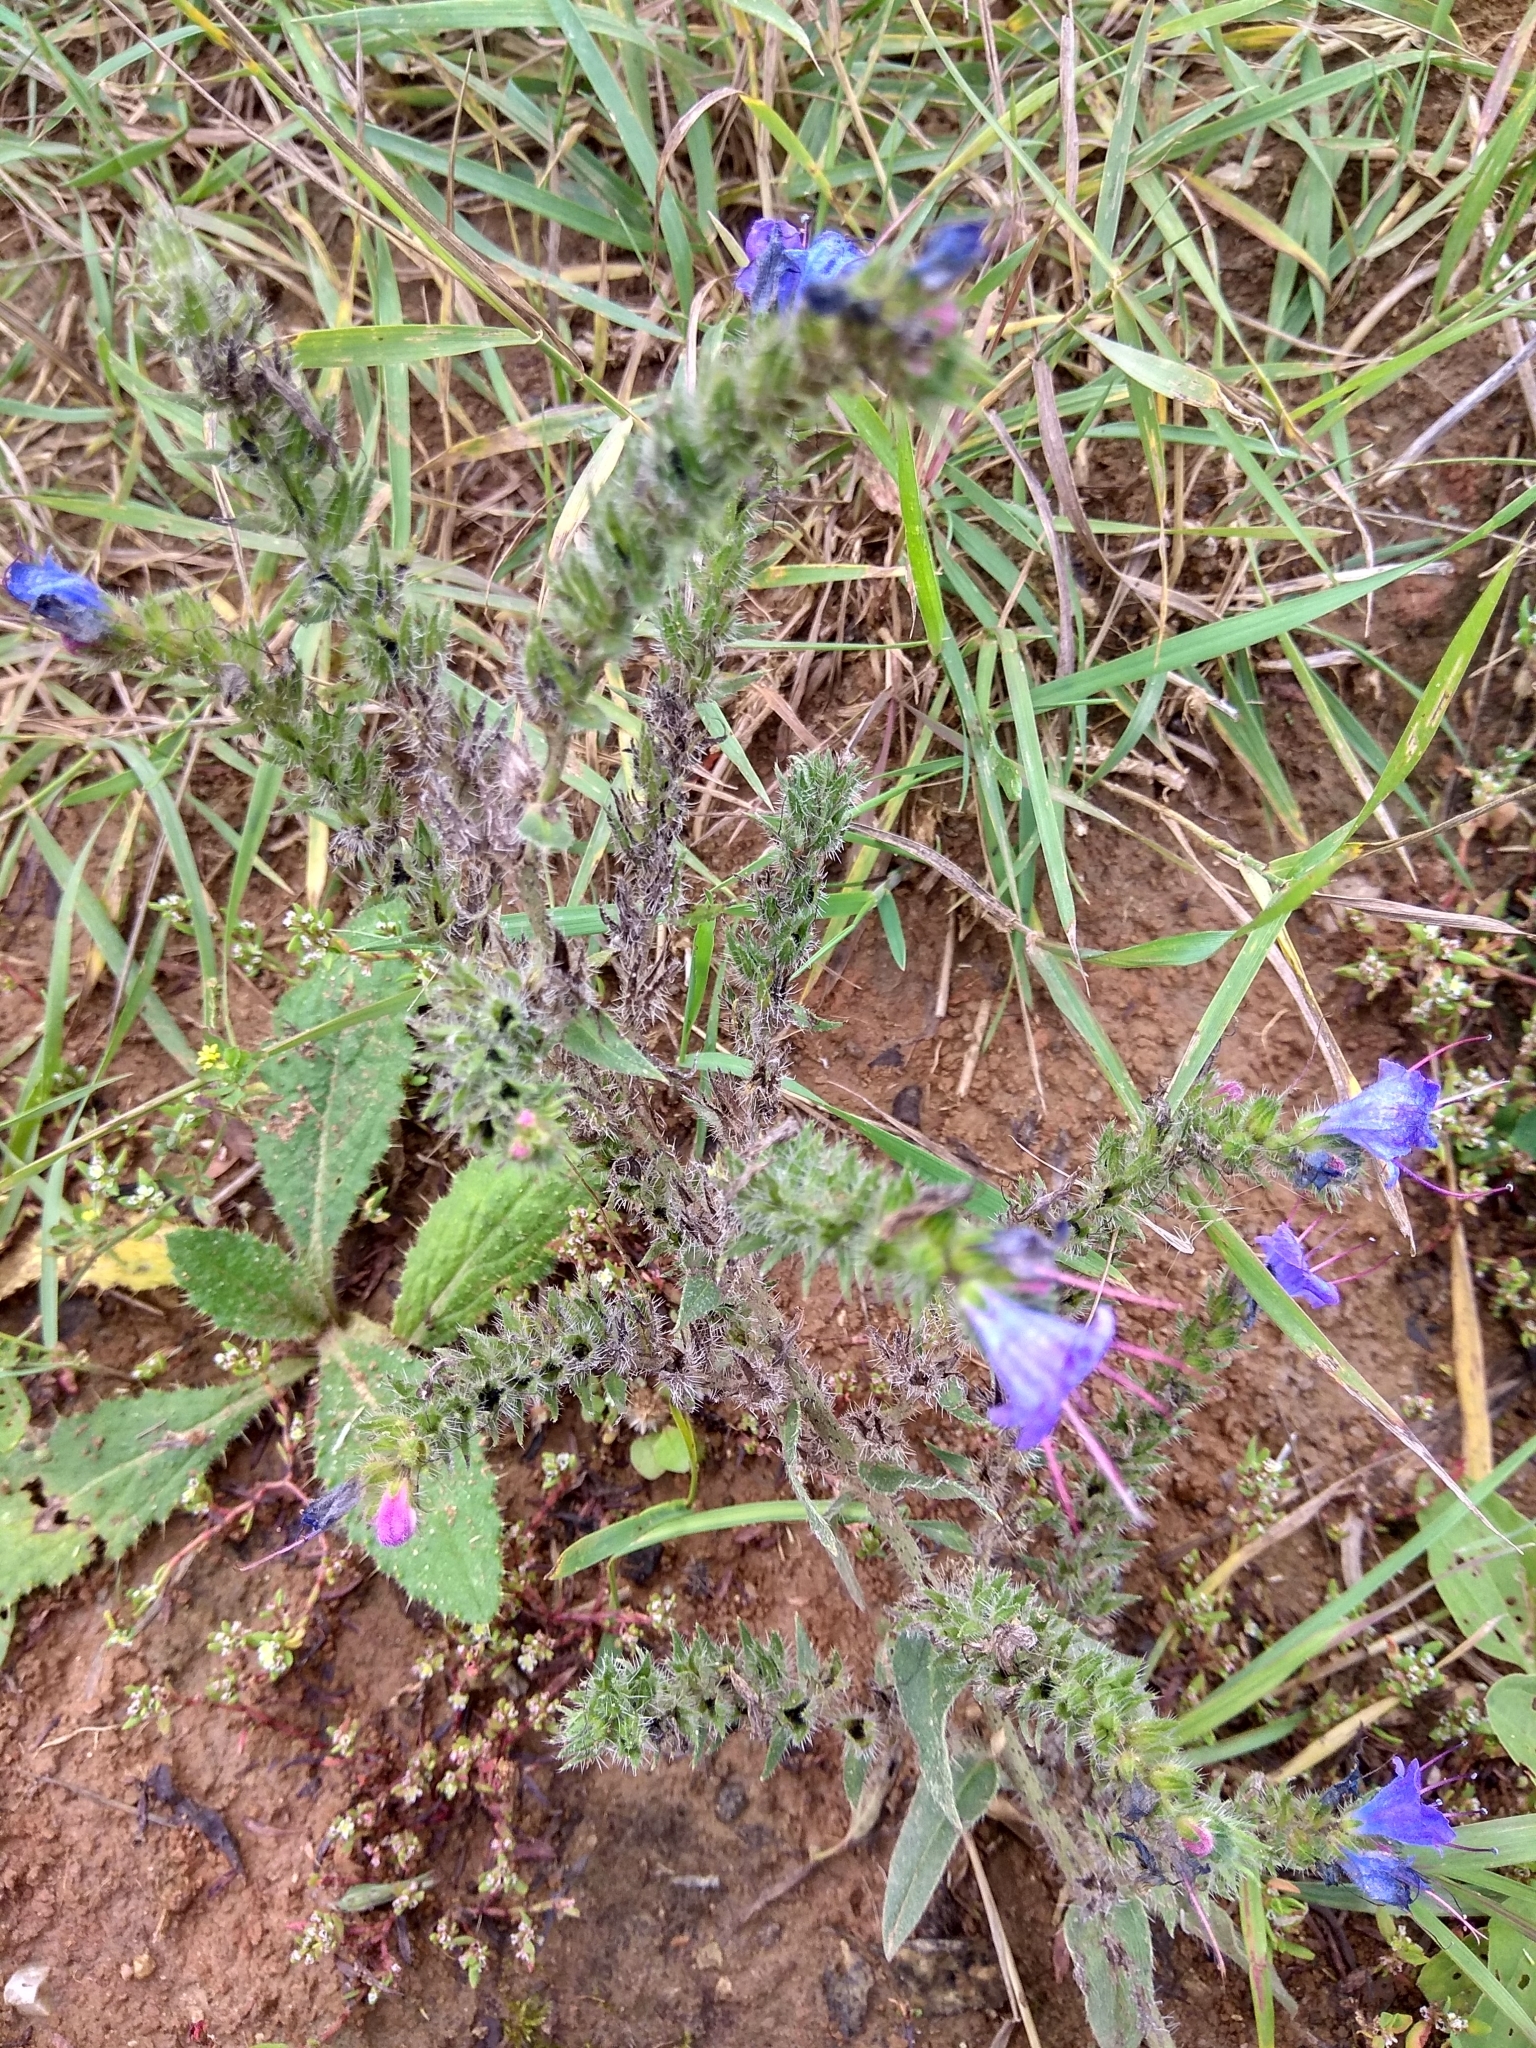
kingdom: Plantae
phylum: Tracheophyta
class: Magnoliopsida
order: Boraginales
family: Boraginaceae
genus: Echium
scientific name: Echium vulgare
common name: Common viper's bugloss
